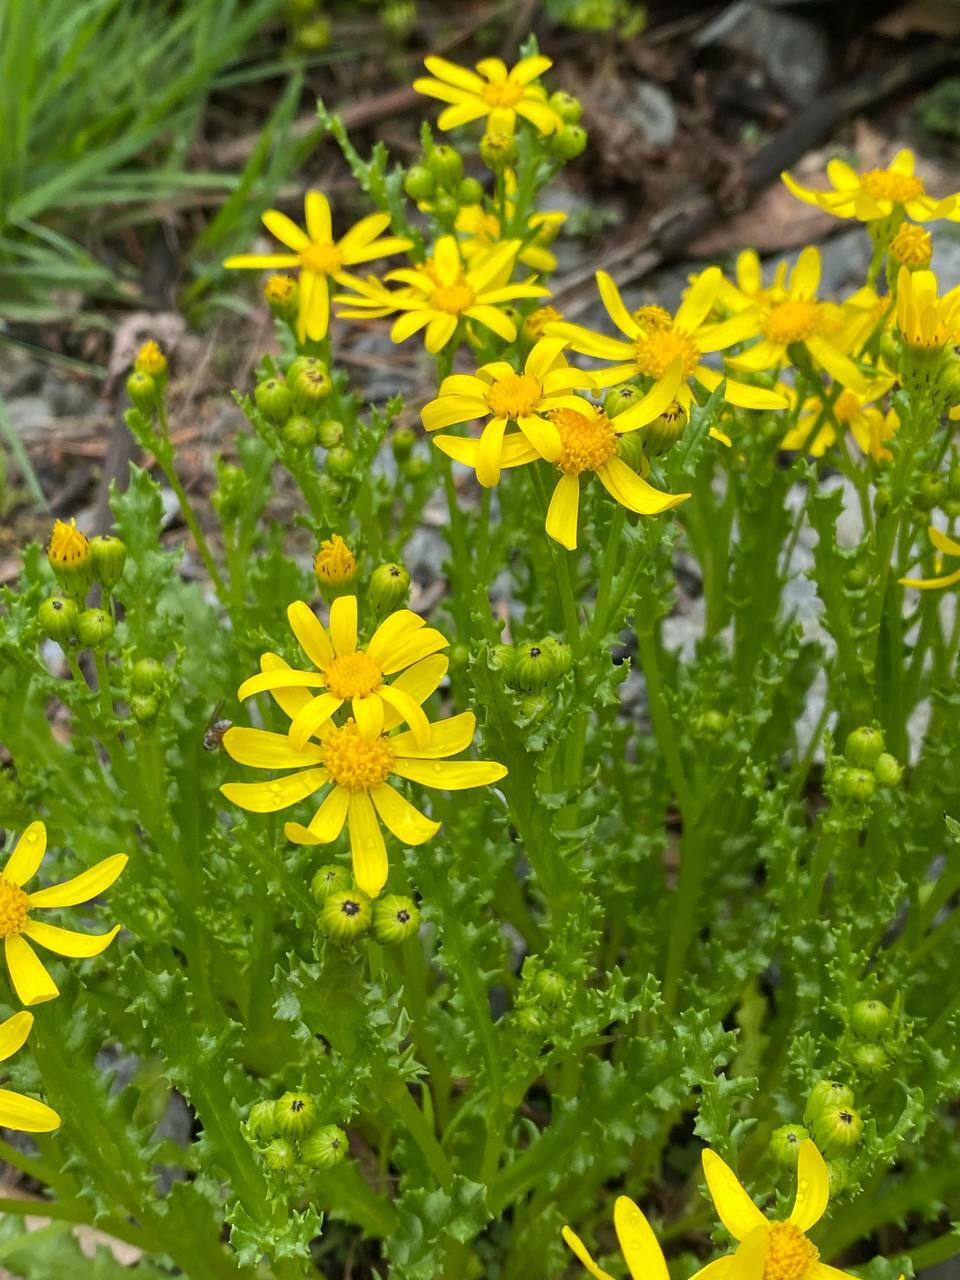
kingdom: Plantae
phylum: Tracheophyta
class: Magnoliopsida
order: Asterales
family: Asteraceae
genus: Senecio
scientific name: Senecio leucanthemifolius
